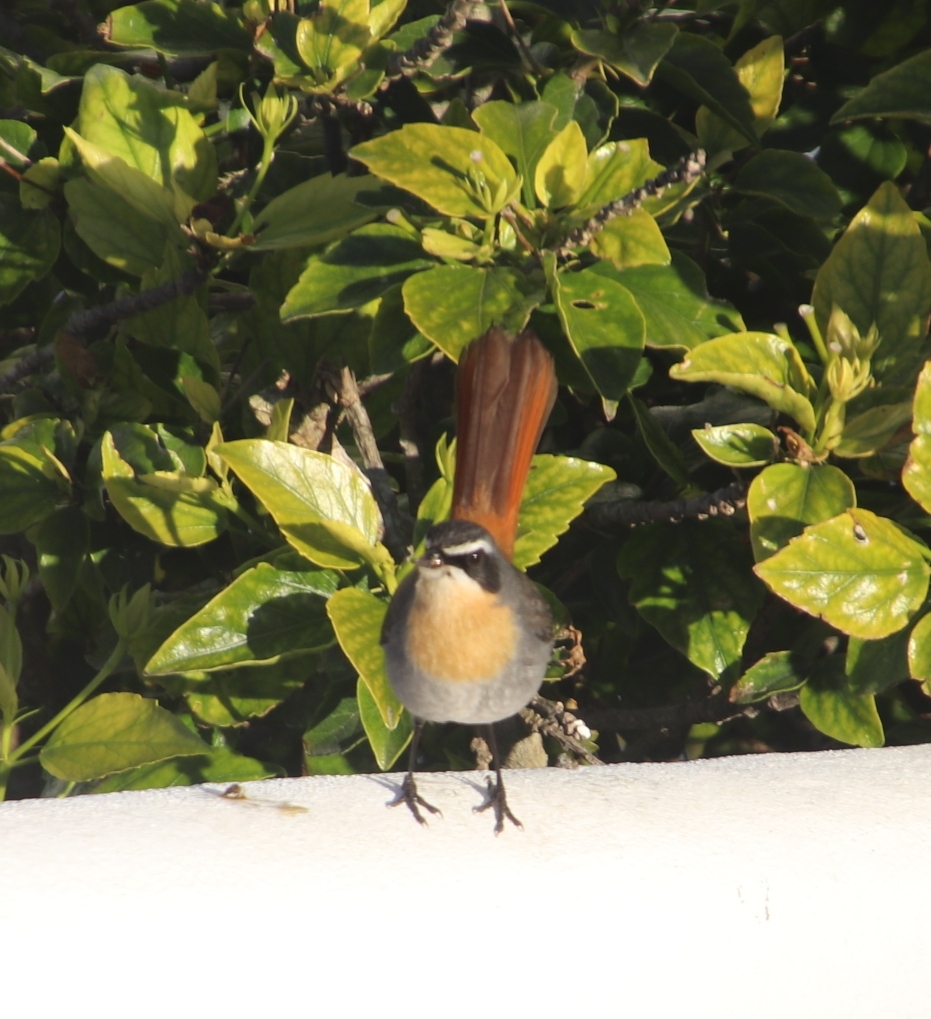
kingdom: Animalia
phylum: Chordata
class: Aves
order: Passeriformes
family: Muscicapidae
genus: Cossypha
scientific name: Cossypha caffra
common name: Cape robin-chat
